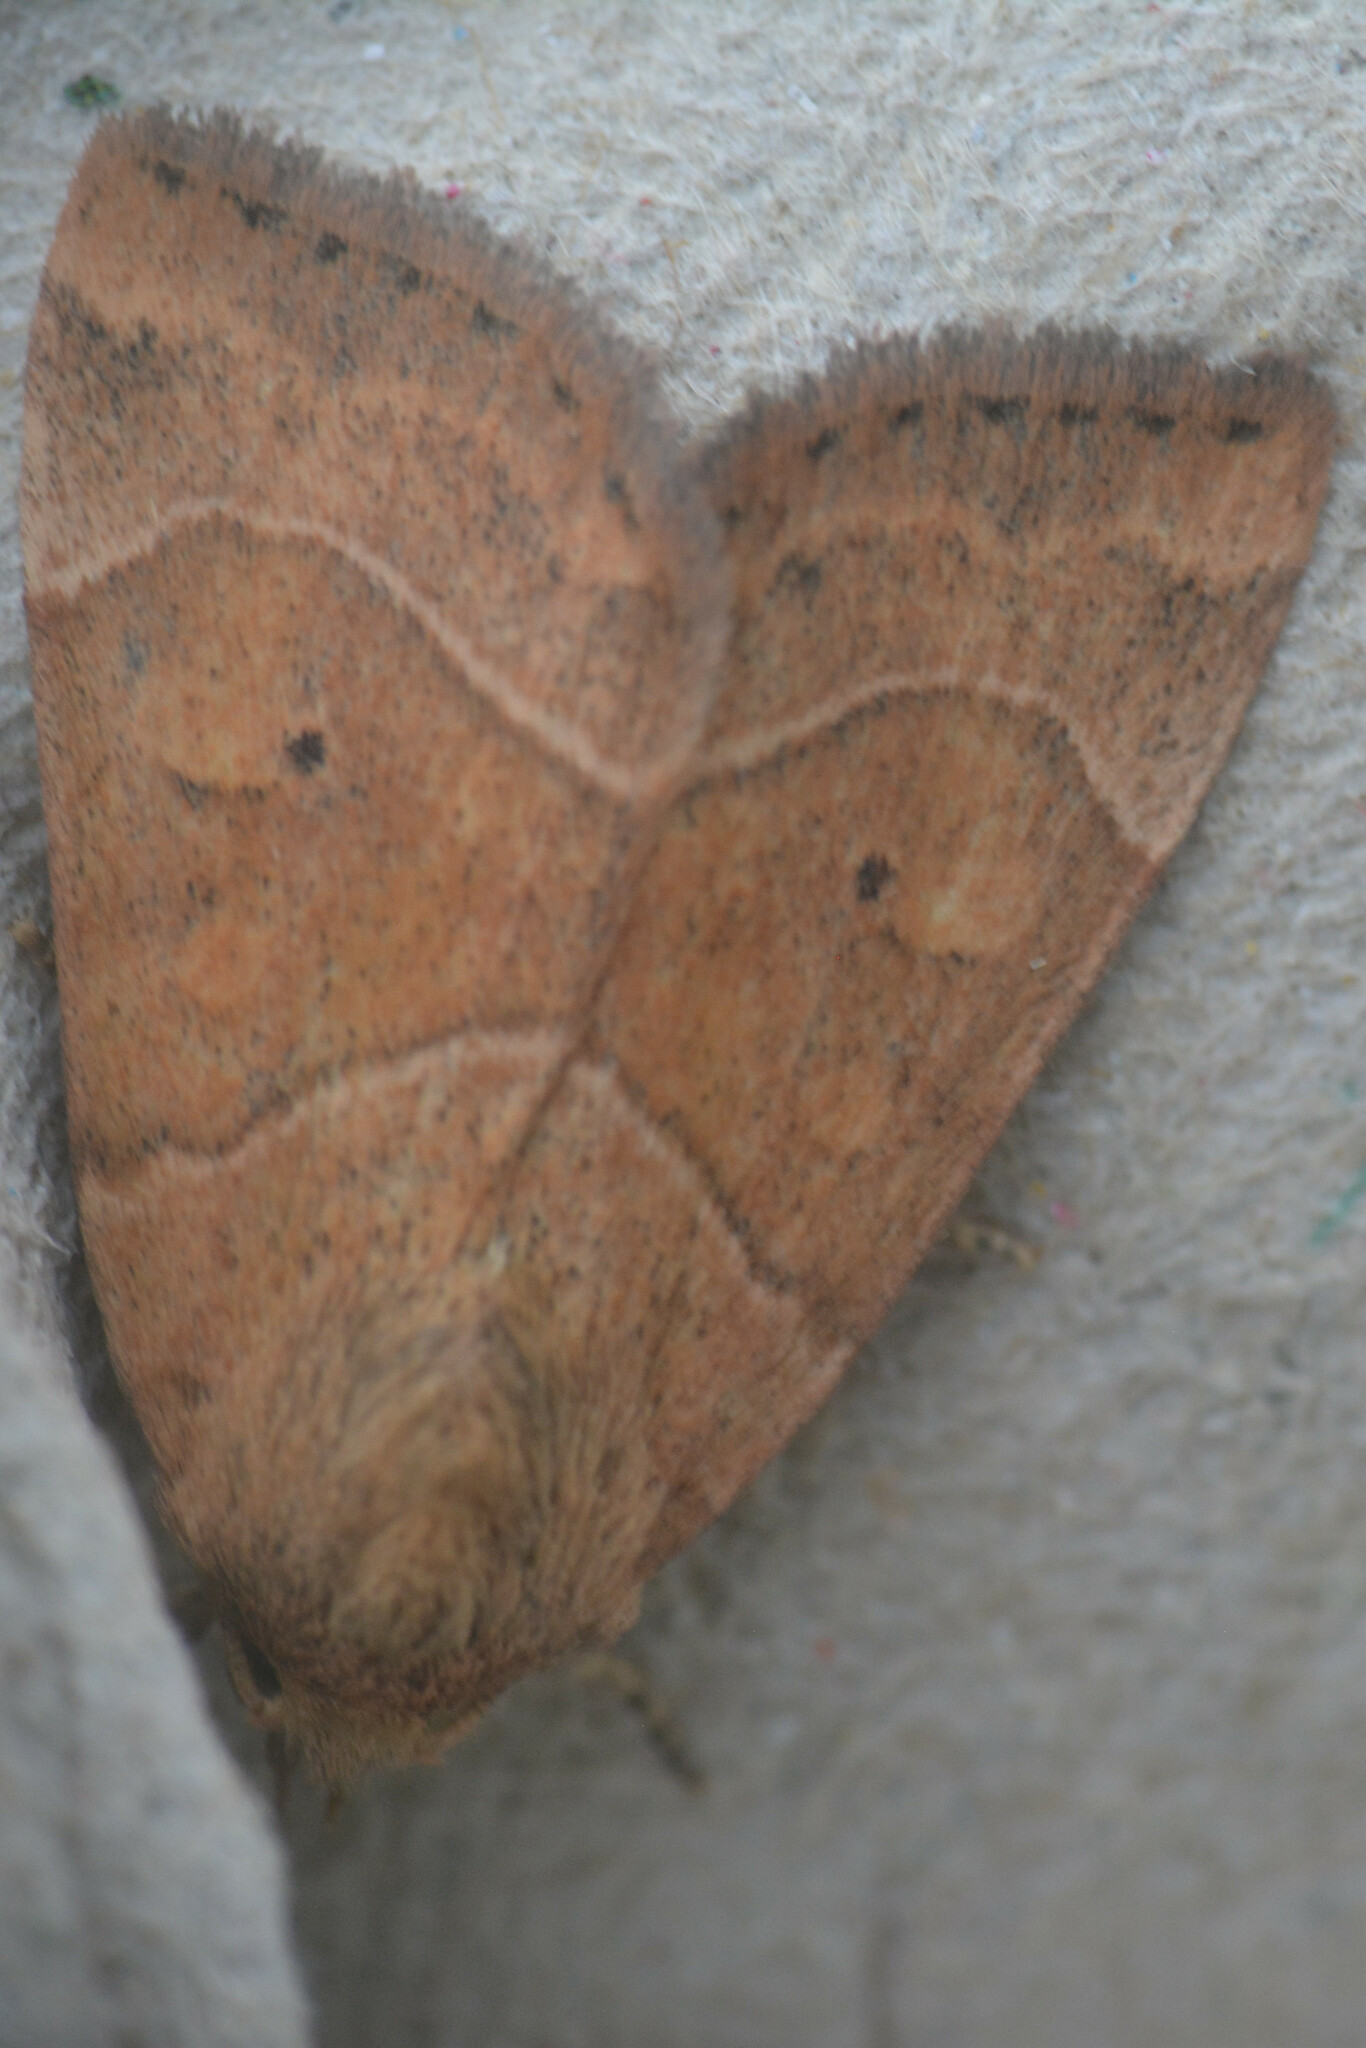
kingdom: Animalia
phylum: Arthropoda
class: Insecta
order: Lepidoptera
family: Noctuidae
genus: Cosmia
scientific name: Cosmia trapezina
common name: Dun-bar
